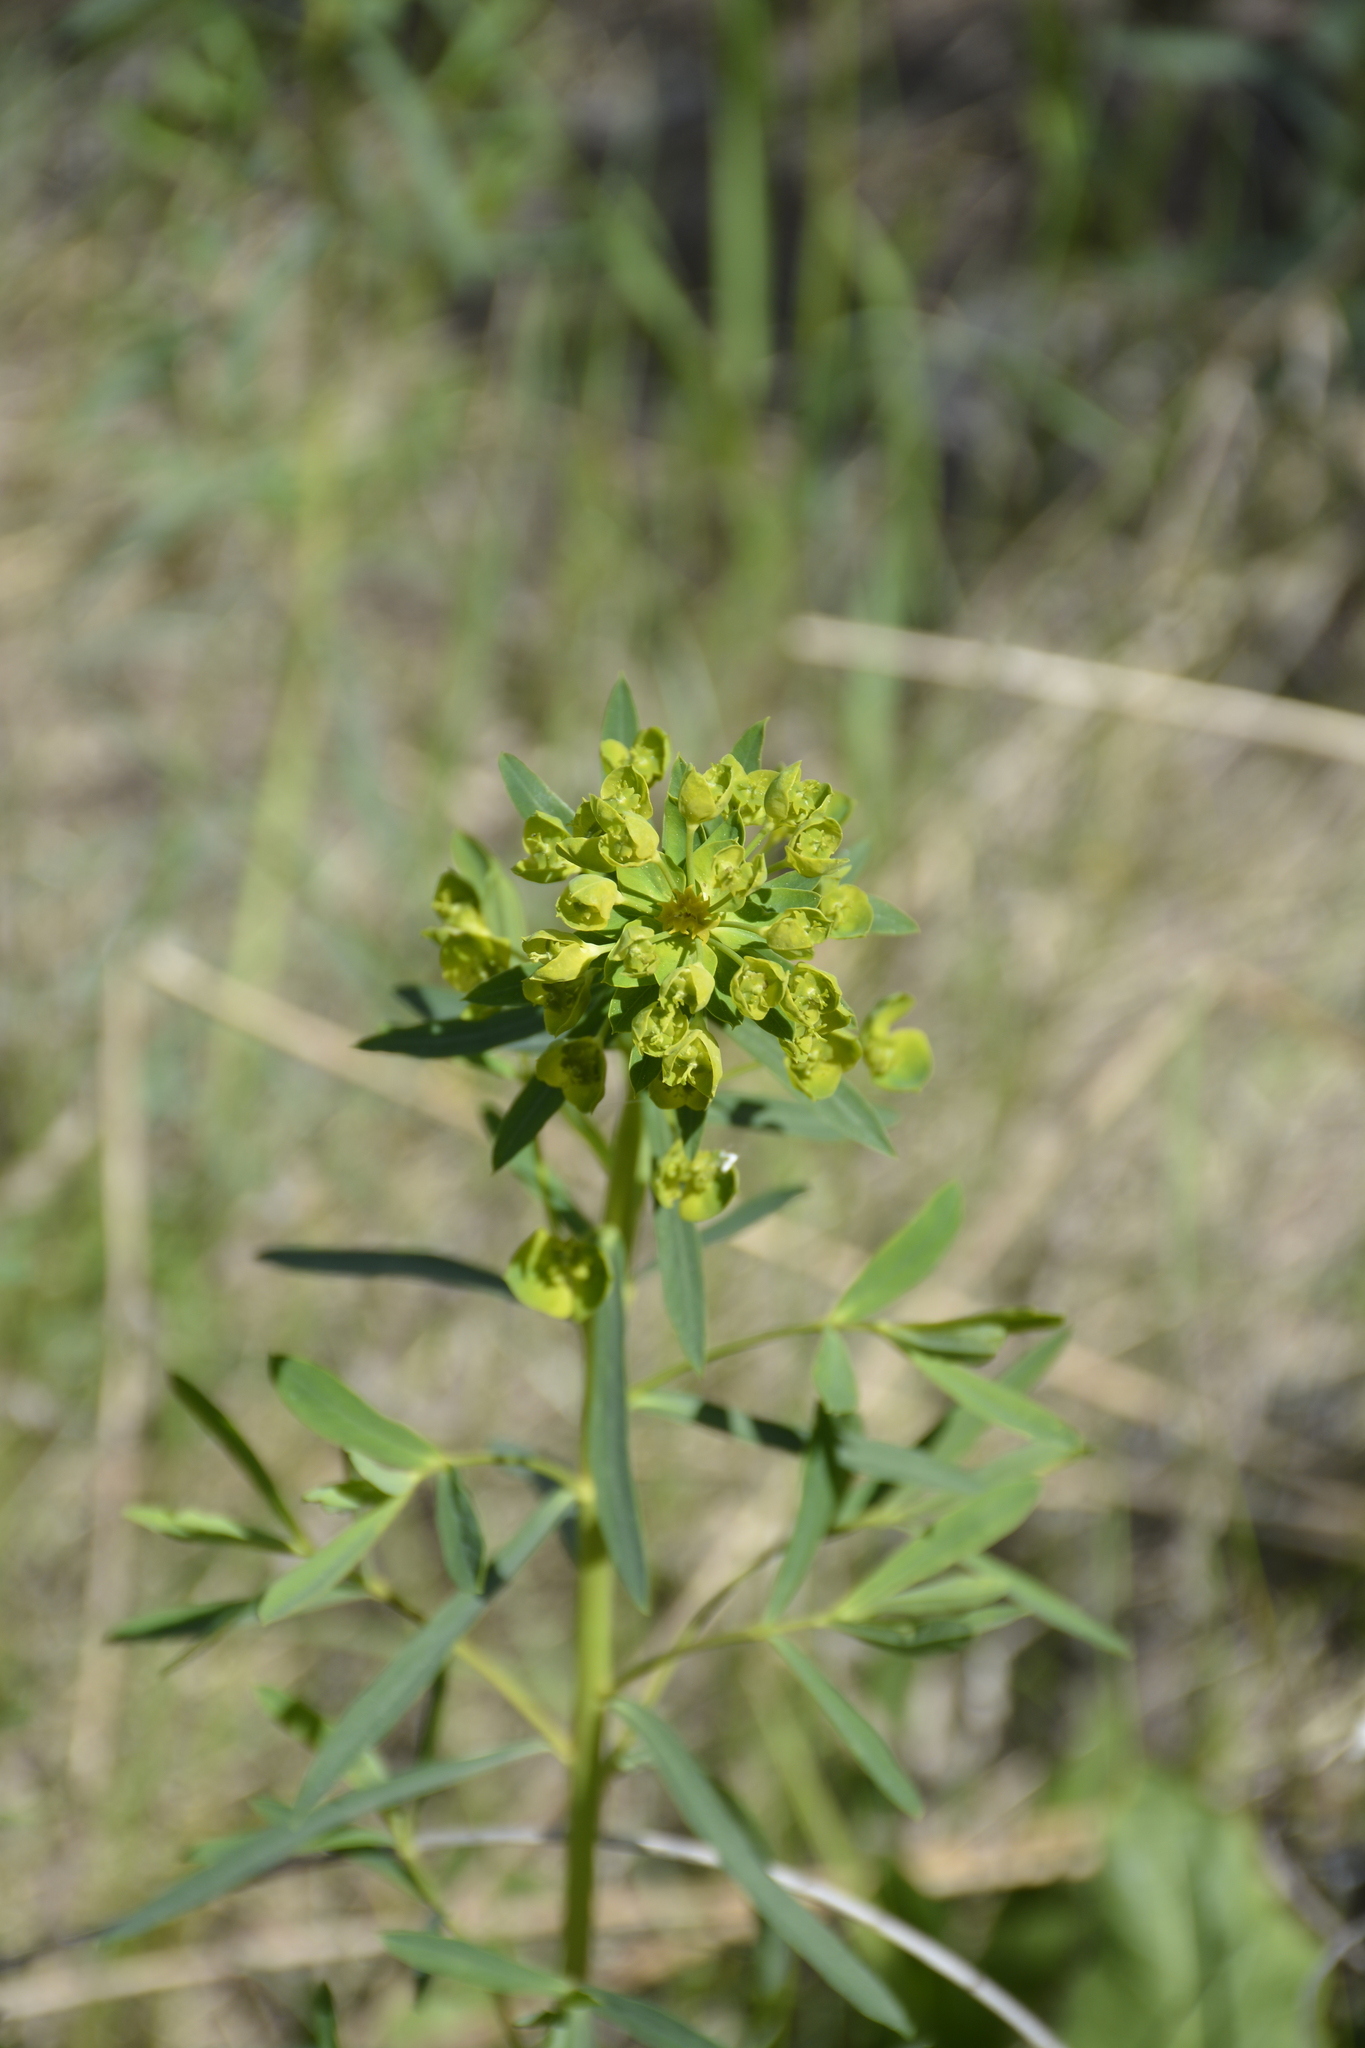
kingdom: Plantae
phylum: Tracheophyta
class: Magnoliopsida
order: Malpighiales
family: Euphorbiaceae
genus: Euphorbia
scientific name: Euphorbia virgata
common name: Leafy spurge
